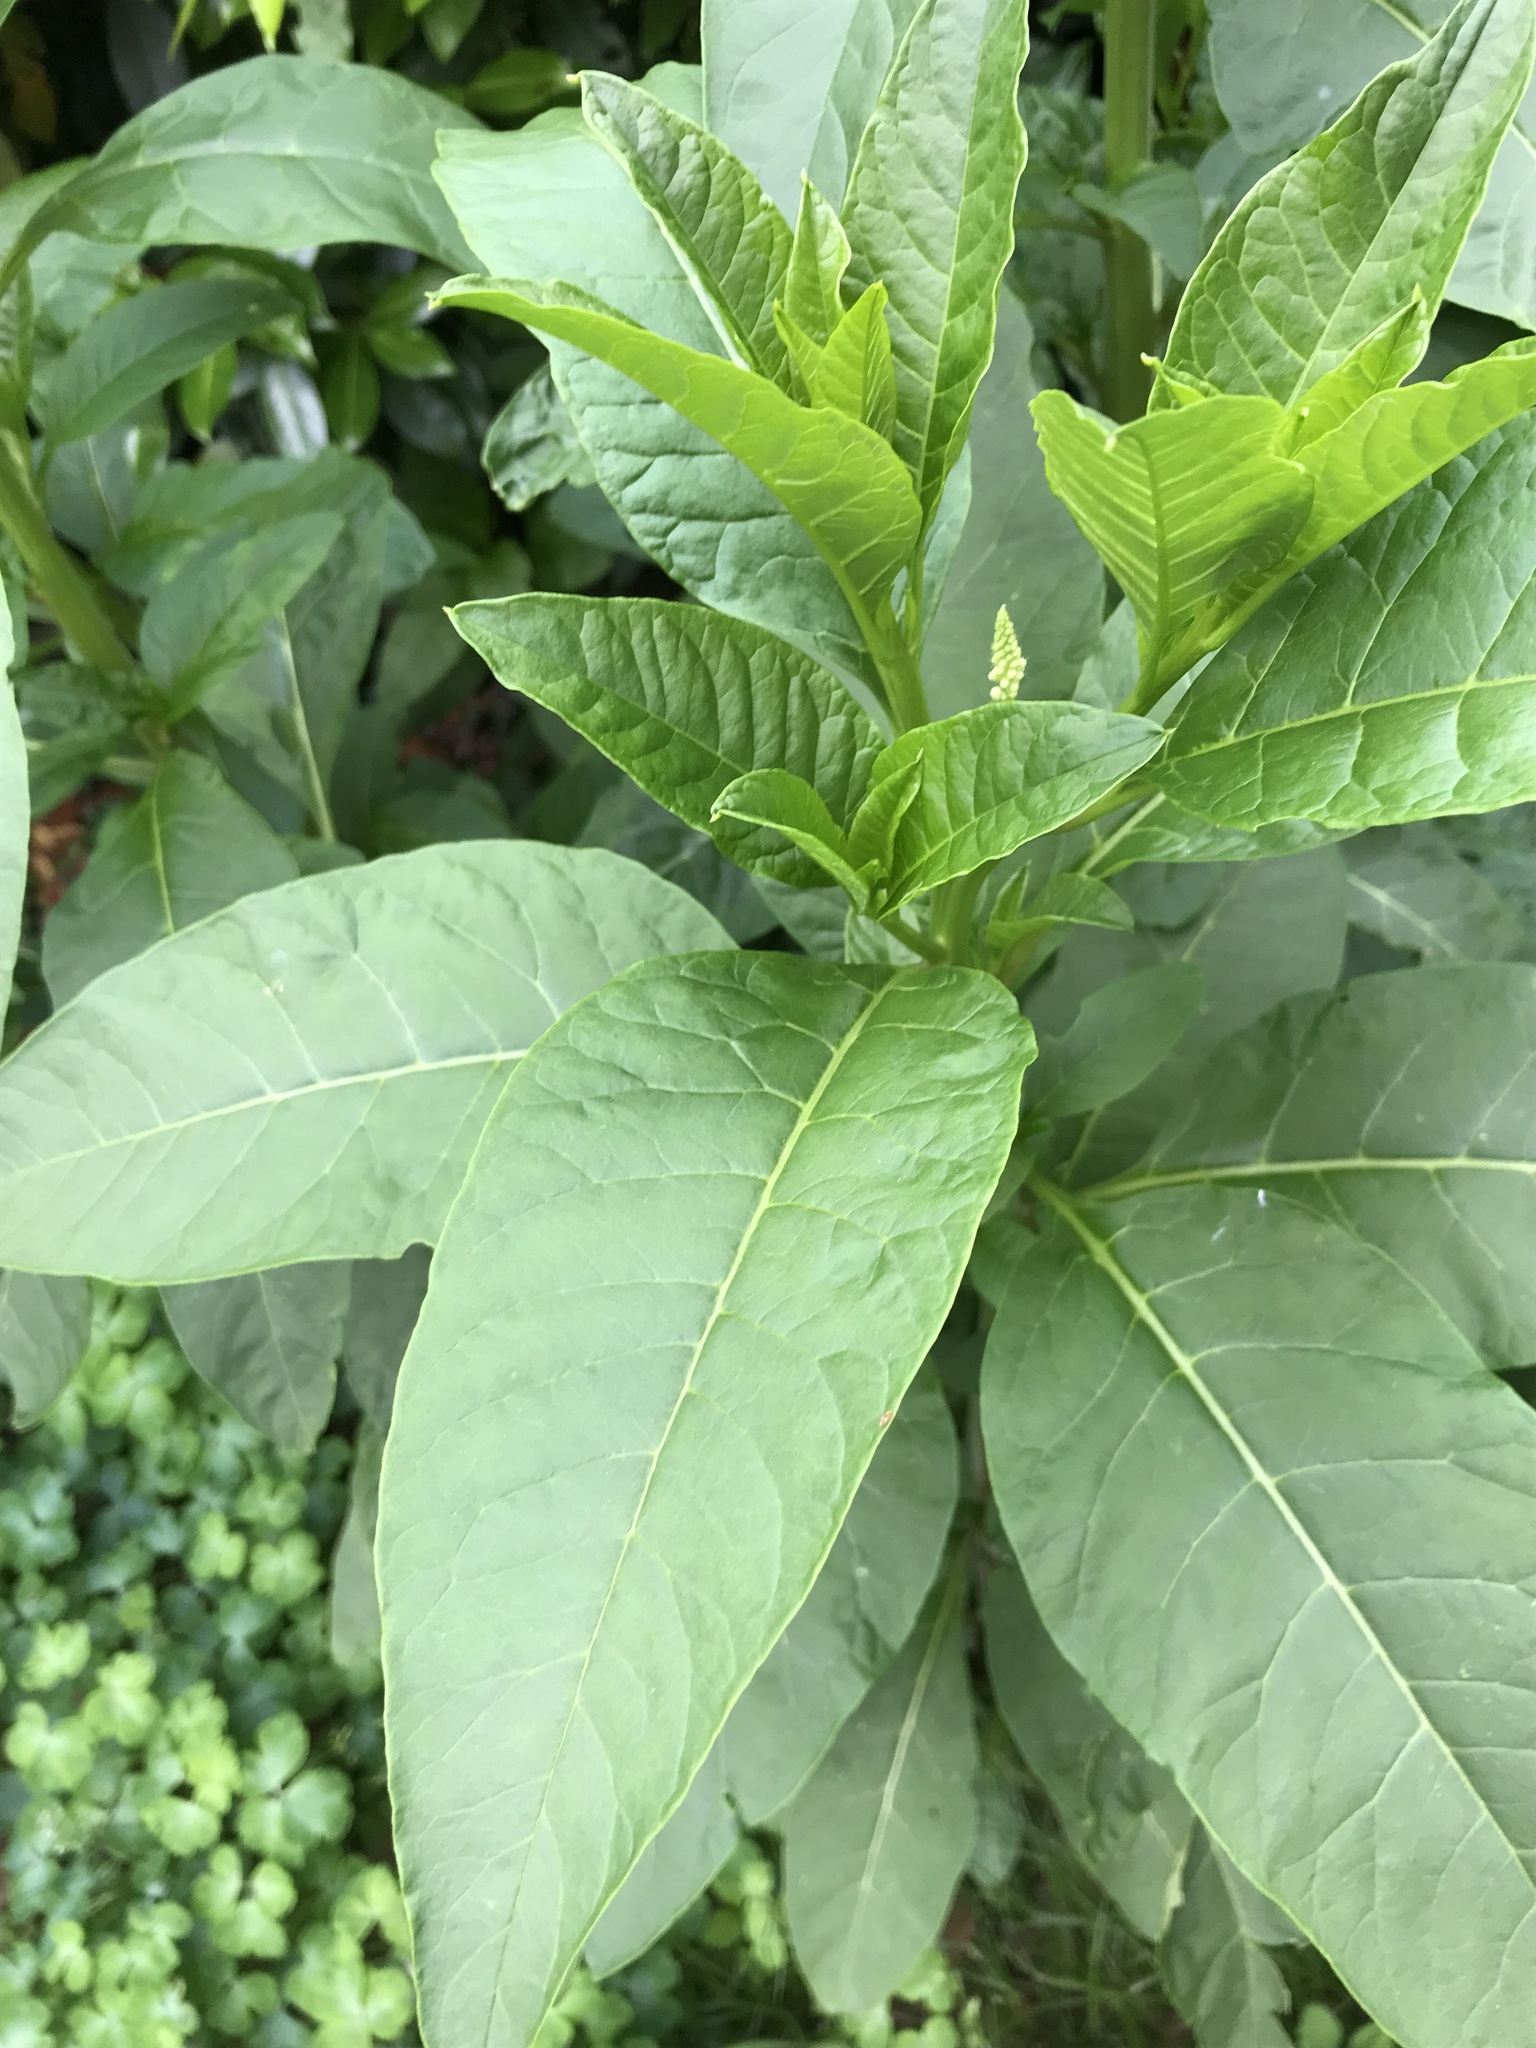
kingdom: Plantae
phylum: Tracheophyta
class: Magnoliopsida
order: Caryophyllales
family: Phytolaccaceae
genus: Phytolacca
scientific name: Phytolacca americana
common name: American pokeweed
